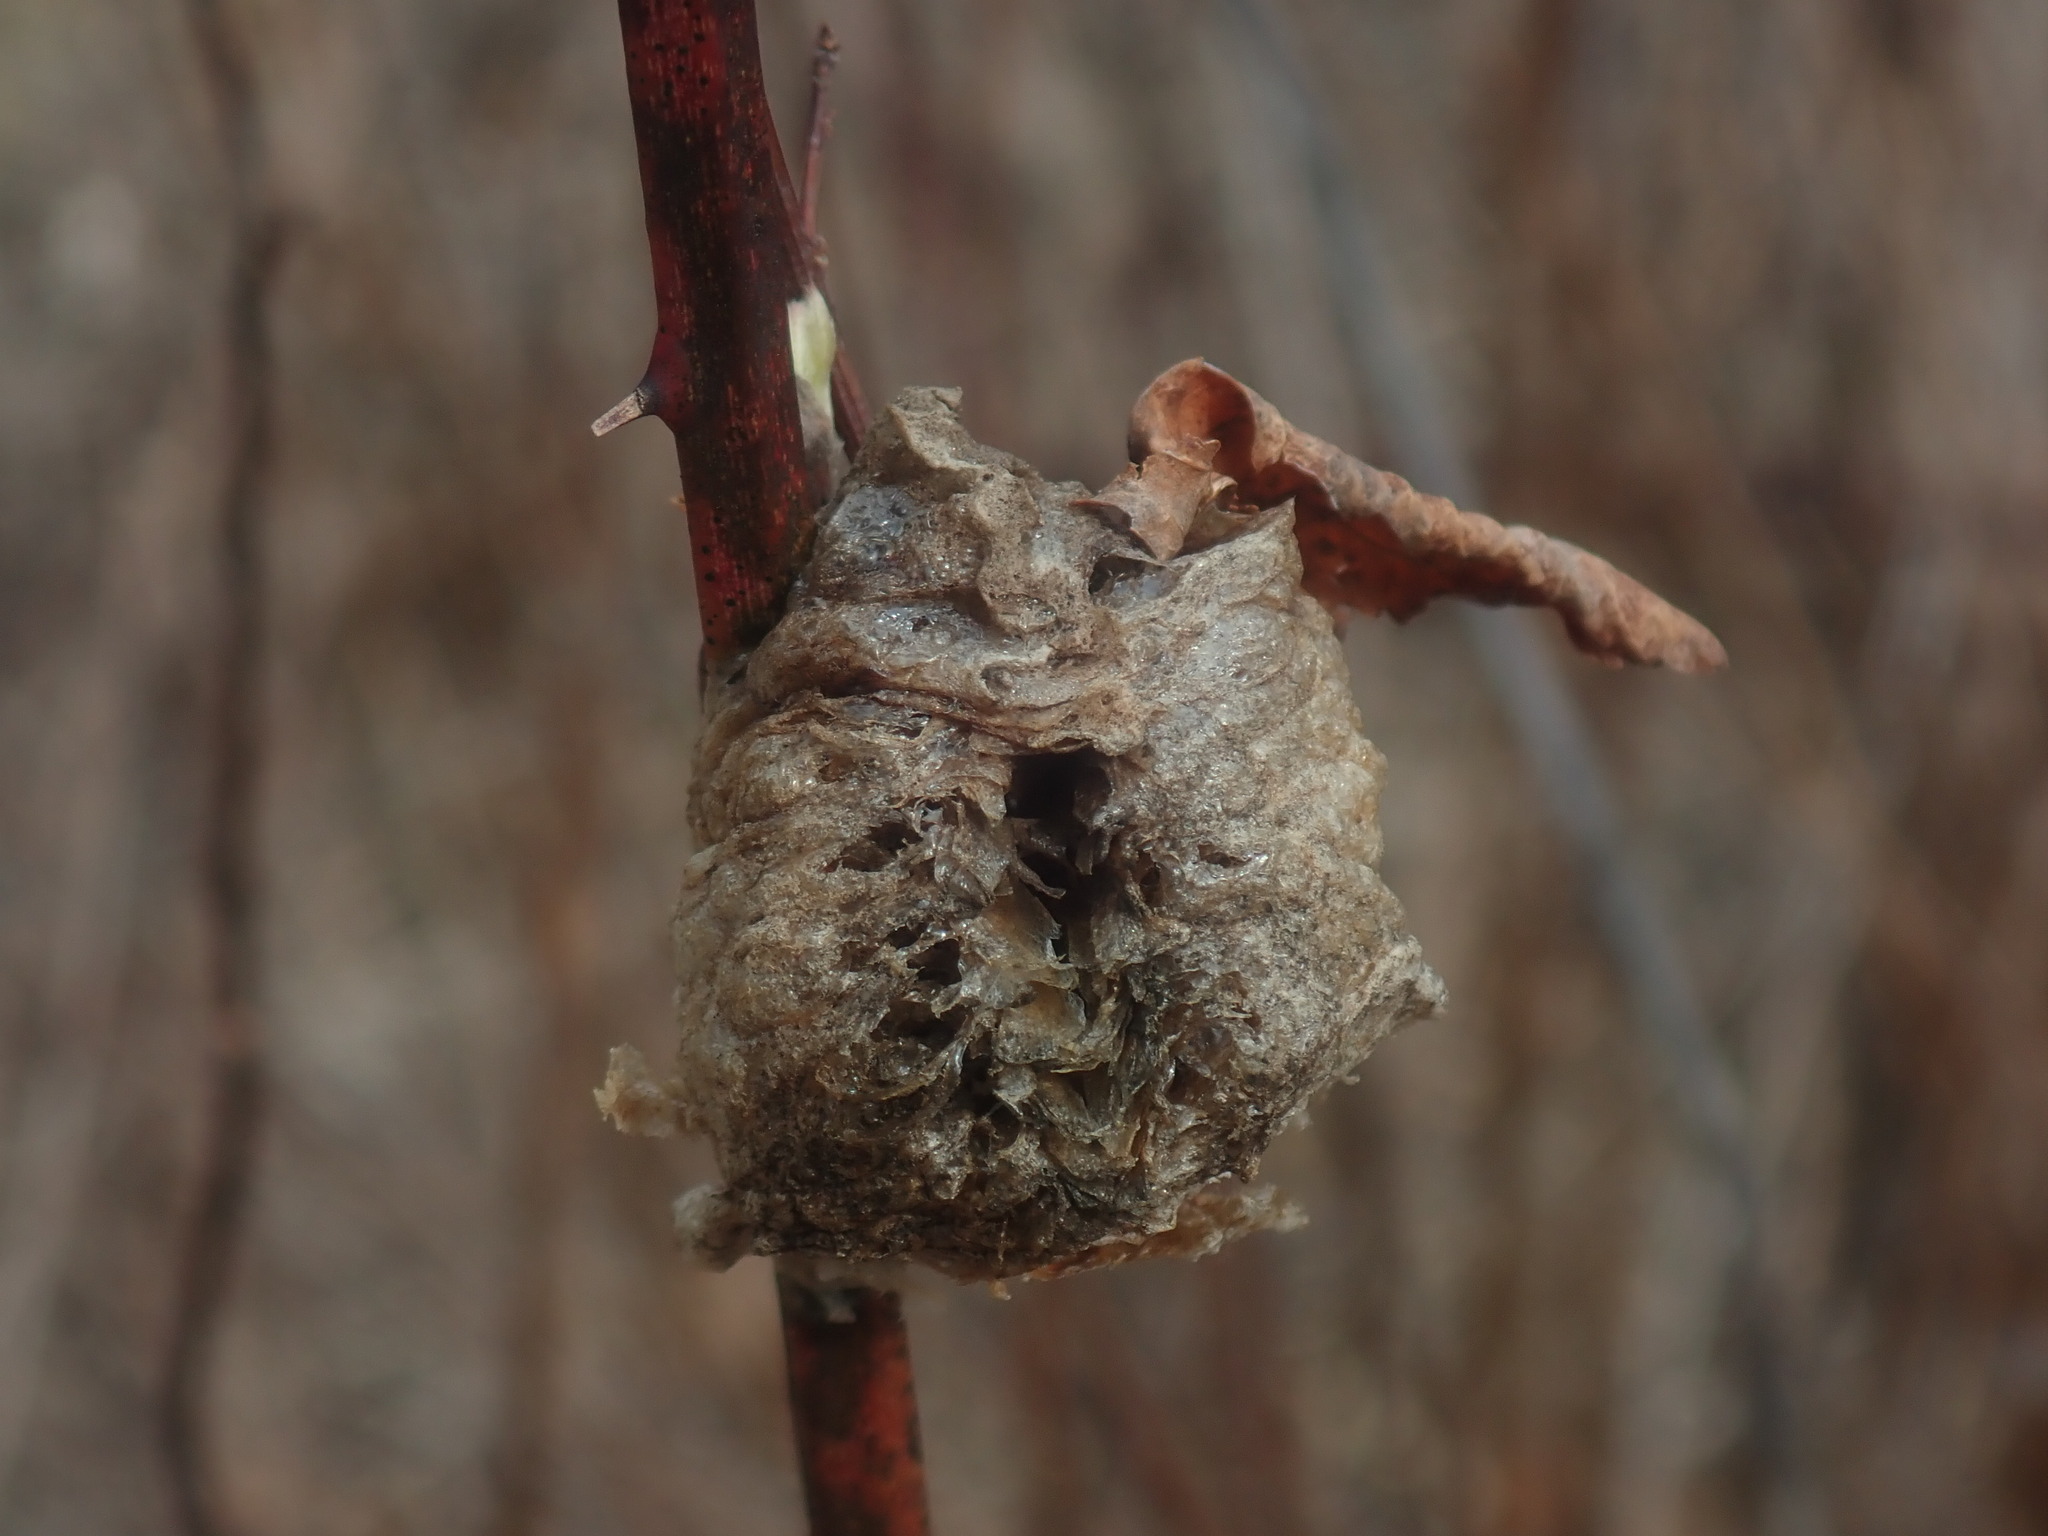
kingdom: Animalia
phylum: Arthropoda
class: Insecta
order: Mantodea
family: Mantidae
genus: Tenodera
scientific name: Tenodera sinensis
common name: Chinese mantis
